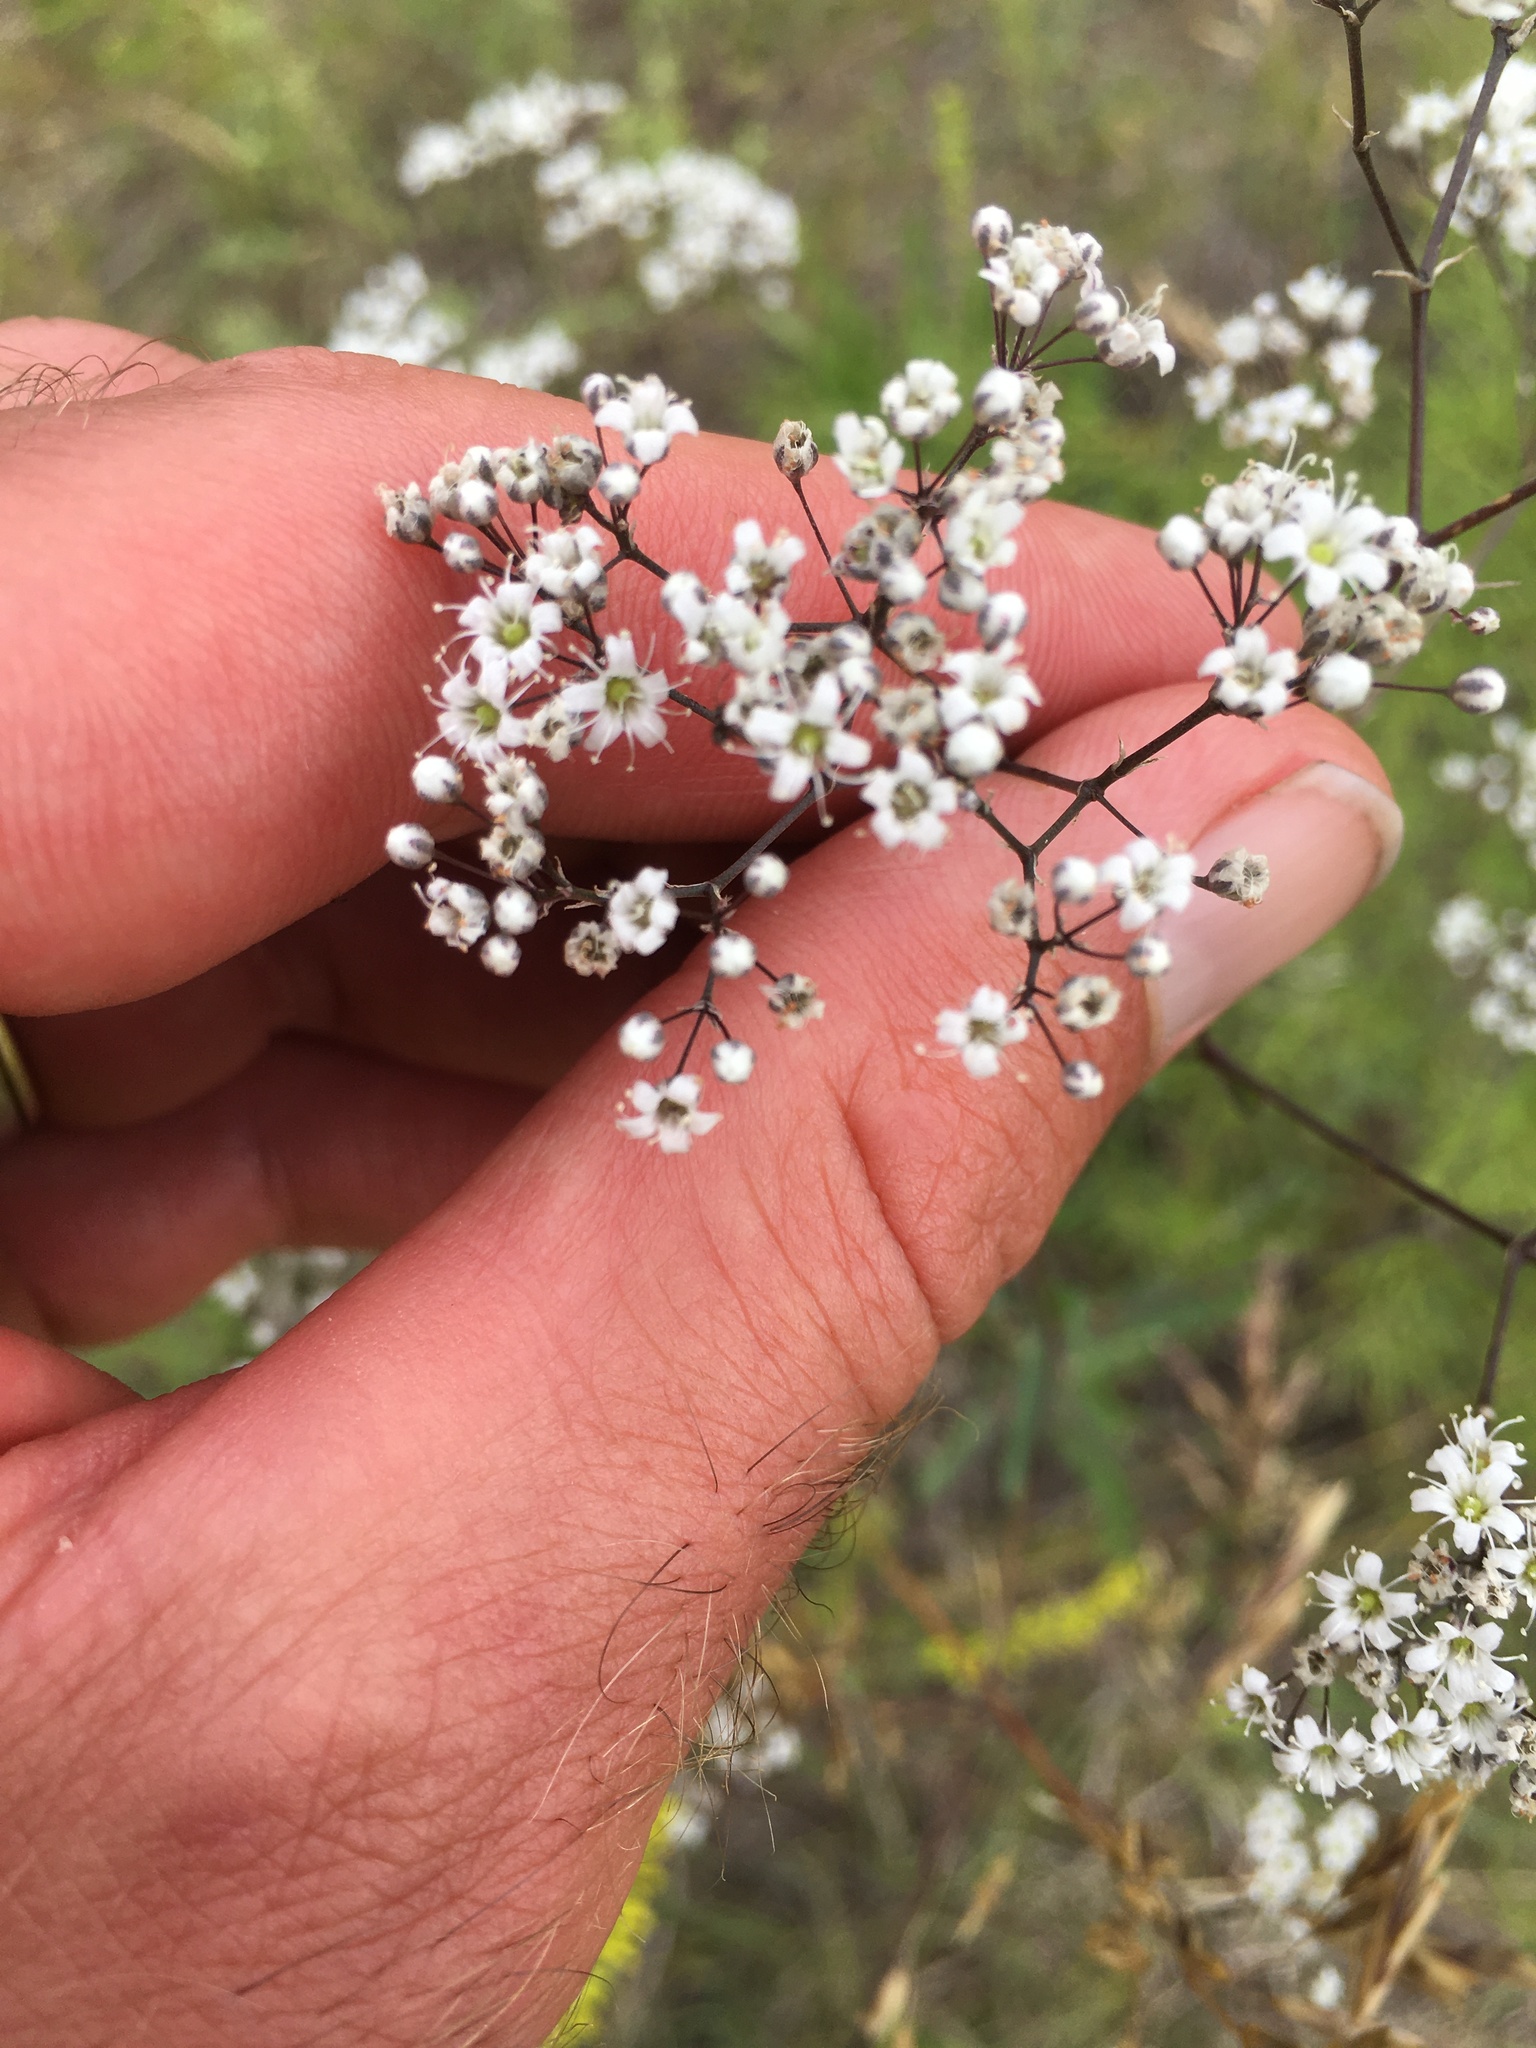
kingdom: Plantae
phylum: Tracheophyta
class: Magnoliopsida
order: Caryophyllales
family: Caryophyllaceae
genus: Gypsophila
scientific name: Gypsophila paniculata
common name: Baby's-breath
